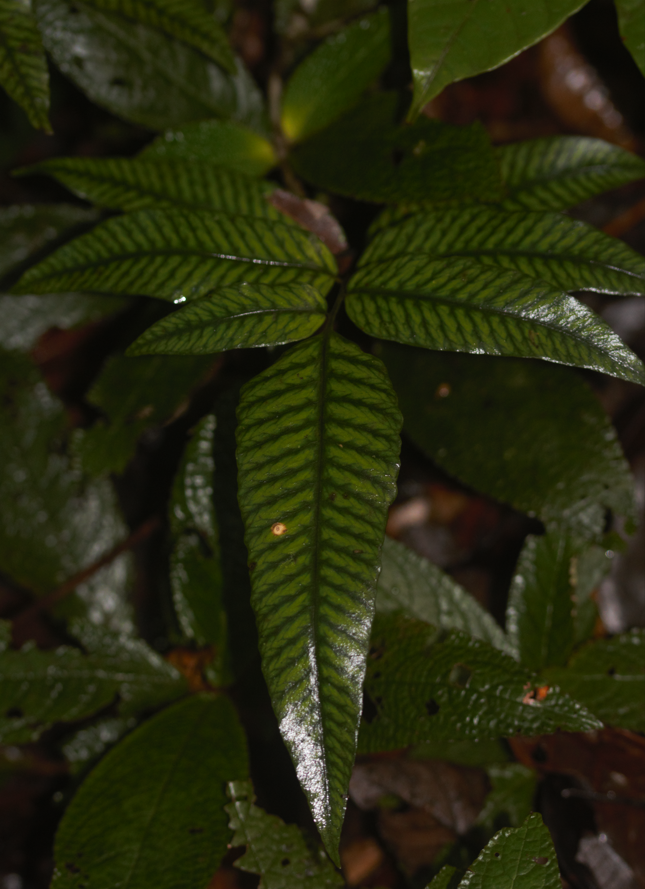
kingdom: Plantae
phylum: Tracheophyta
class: Polypodiopsida
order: Polypodiales
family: Dryopteridaceae
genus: Cyclodium
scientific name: Cyclodium meniscioides
